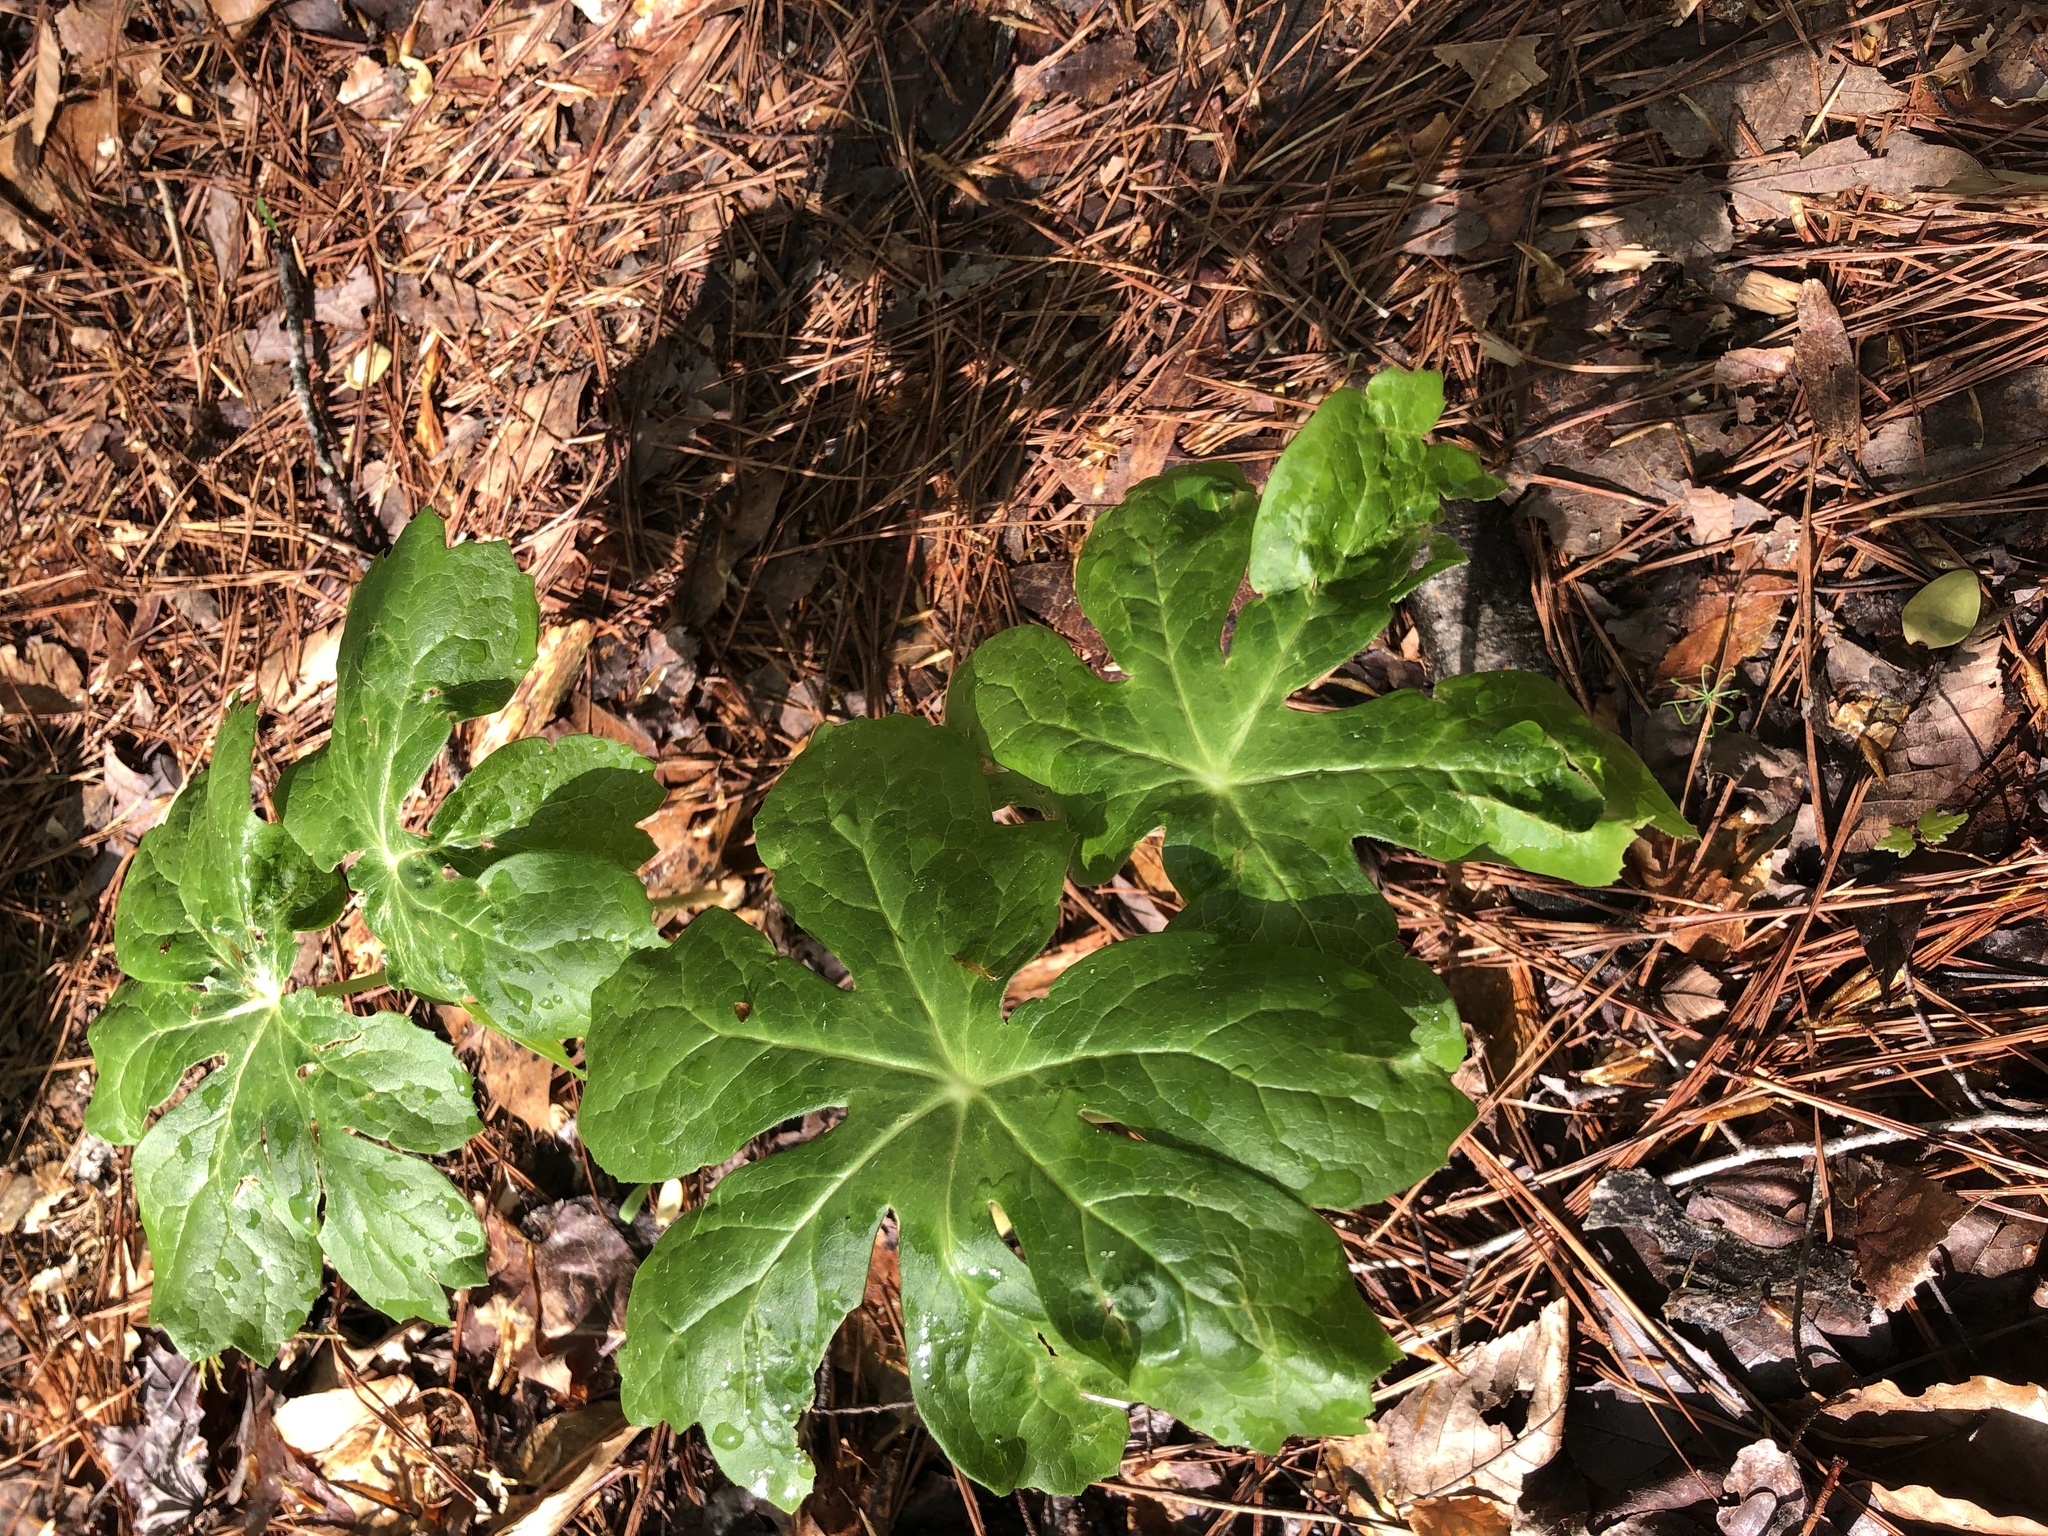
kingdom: Plantae
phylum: Tracheophyta
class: Magnoliopsida
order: Ranunculales
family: Berberidaceae
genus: Podophyllum
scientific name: Podophyllum peltatum
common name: Wild mandrake
